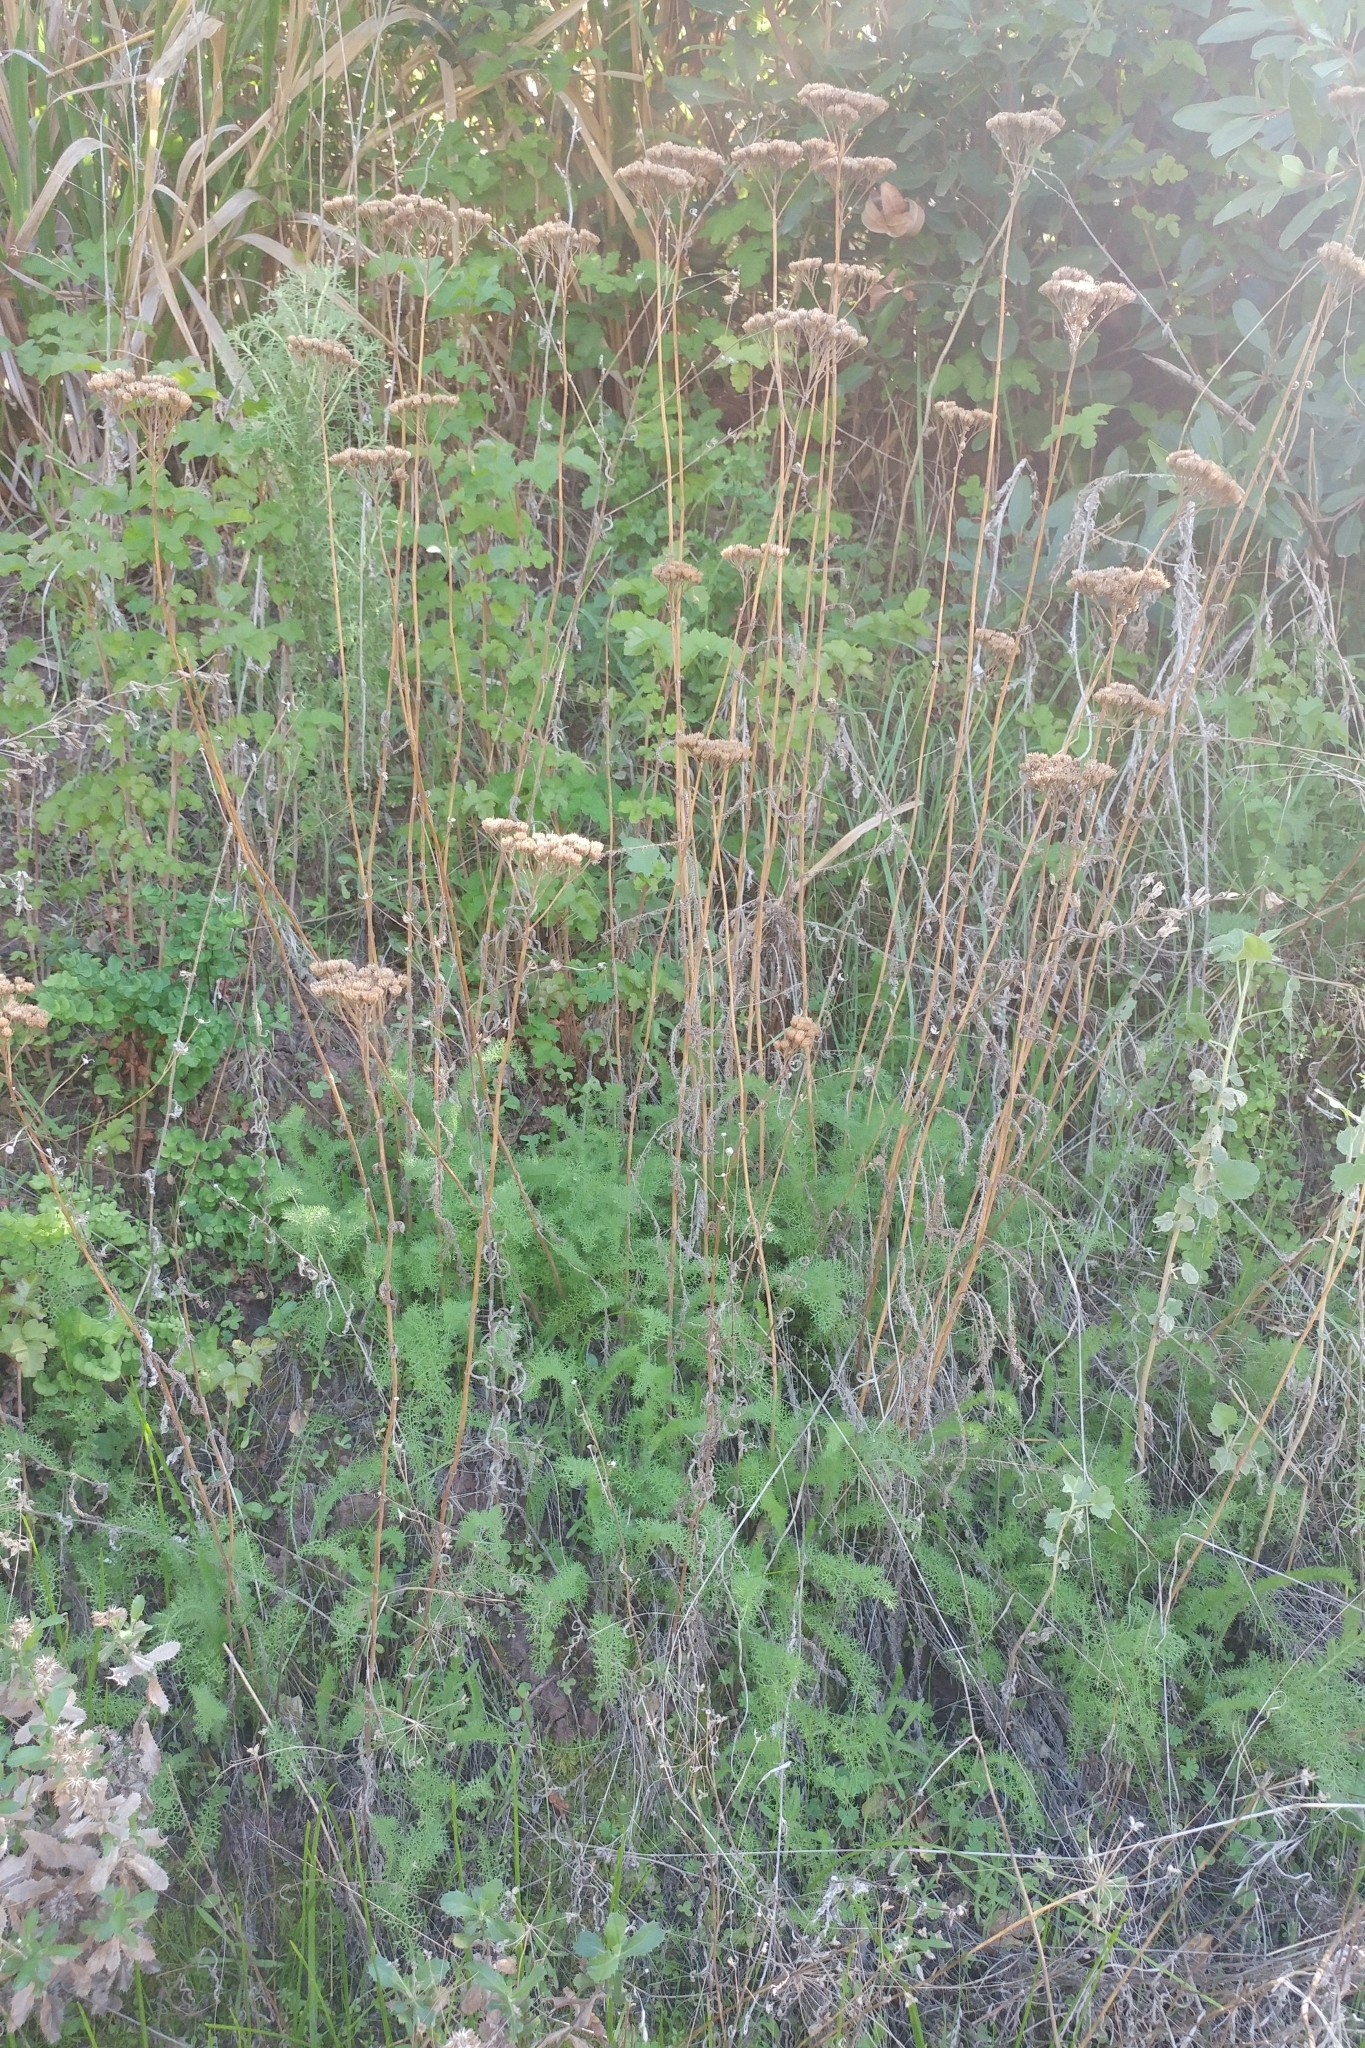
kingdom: Plantae
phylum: Tracheophyta
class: Magnoliopsida
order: Asterales
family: Asteraceae
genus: Achillea
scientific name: Achillea millefolium
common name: Yarrow
